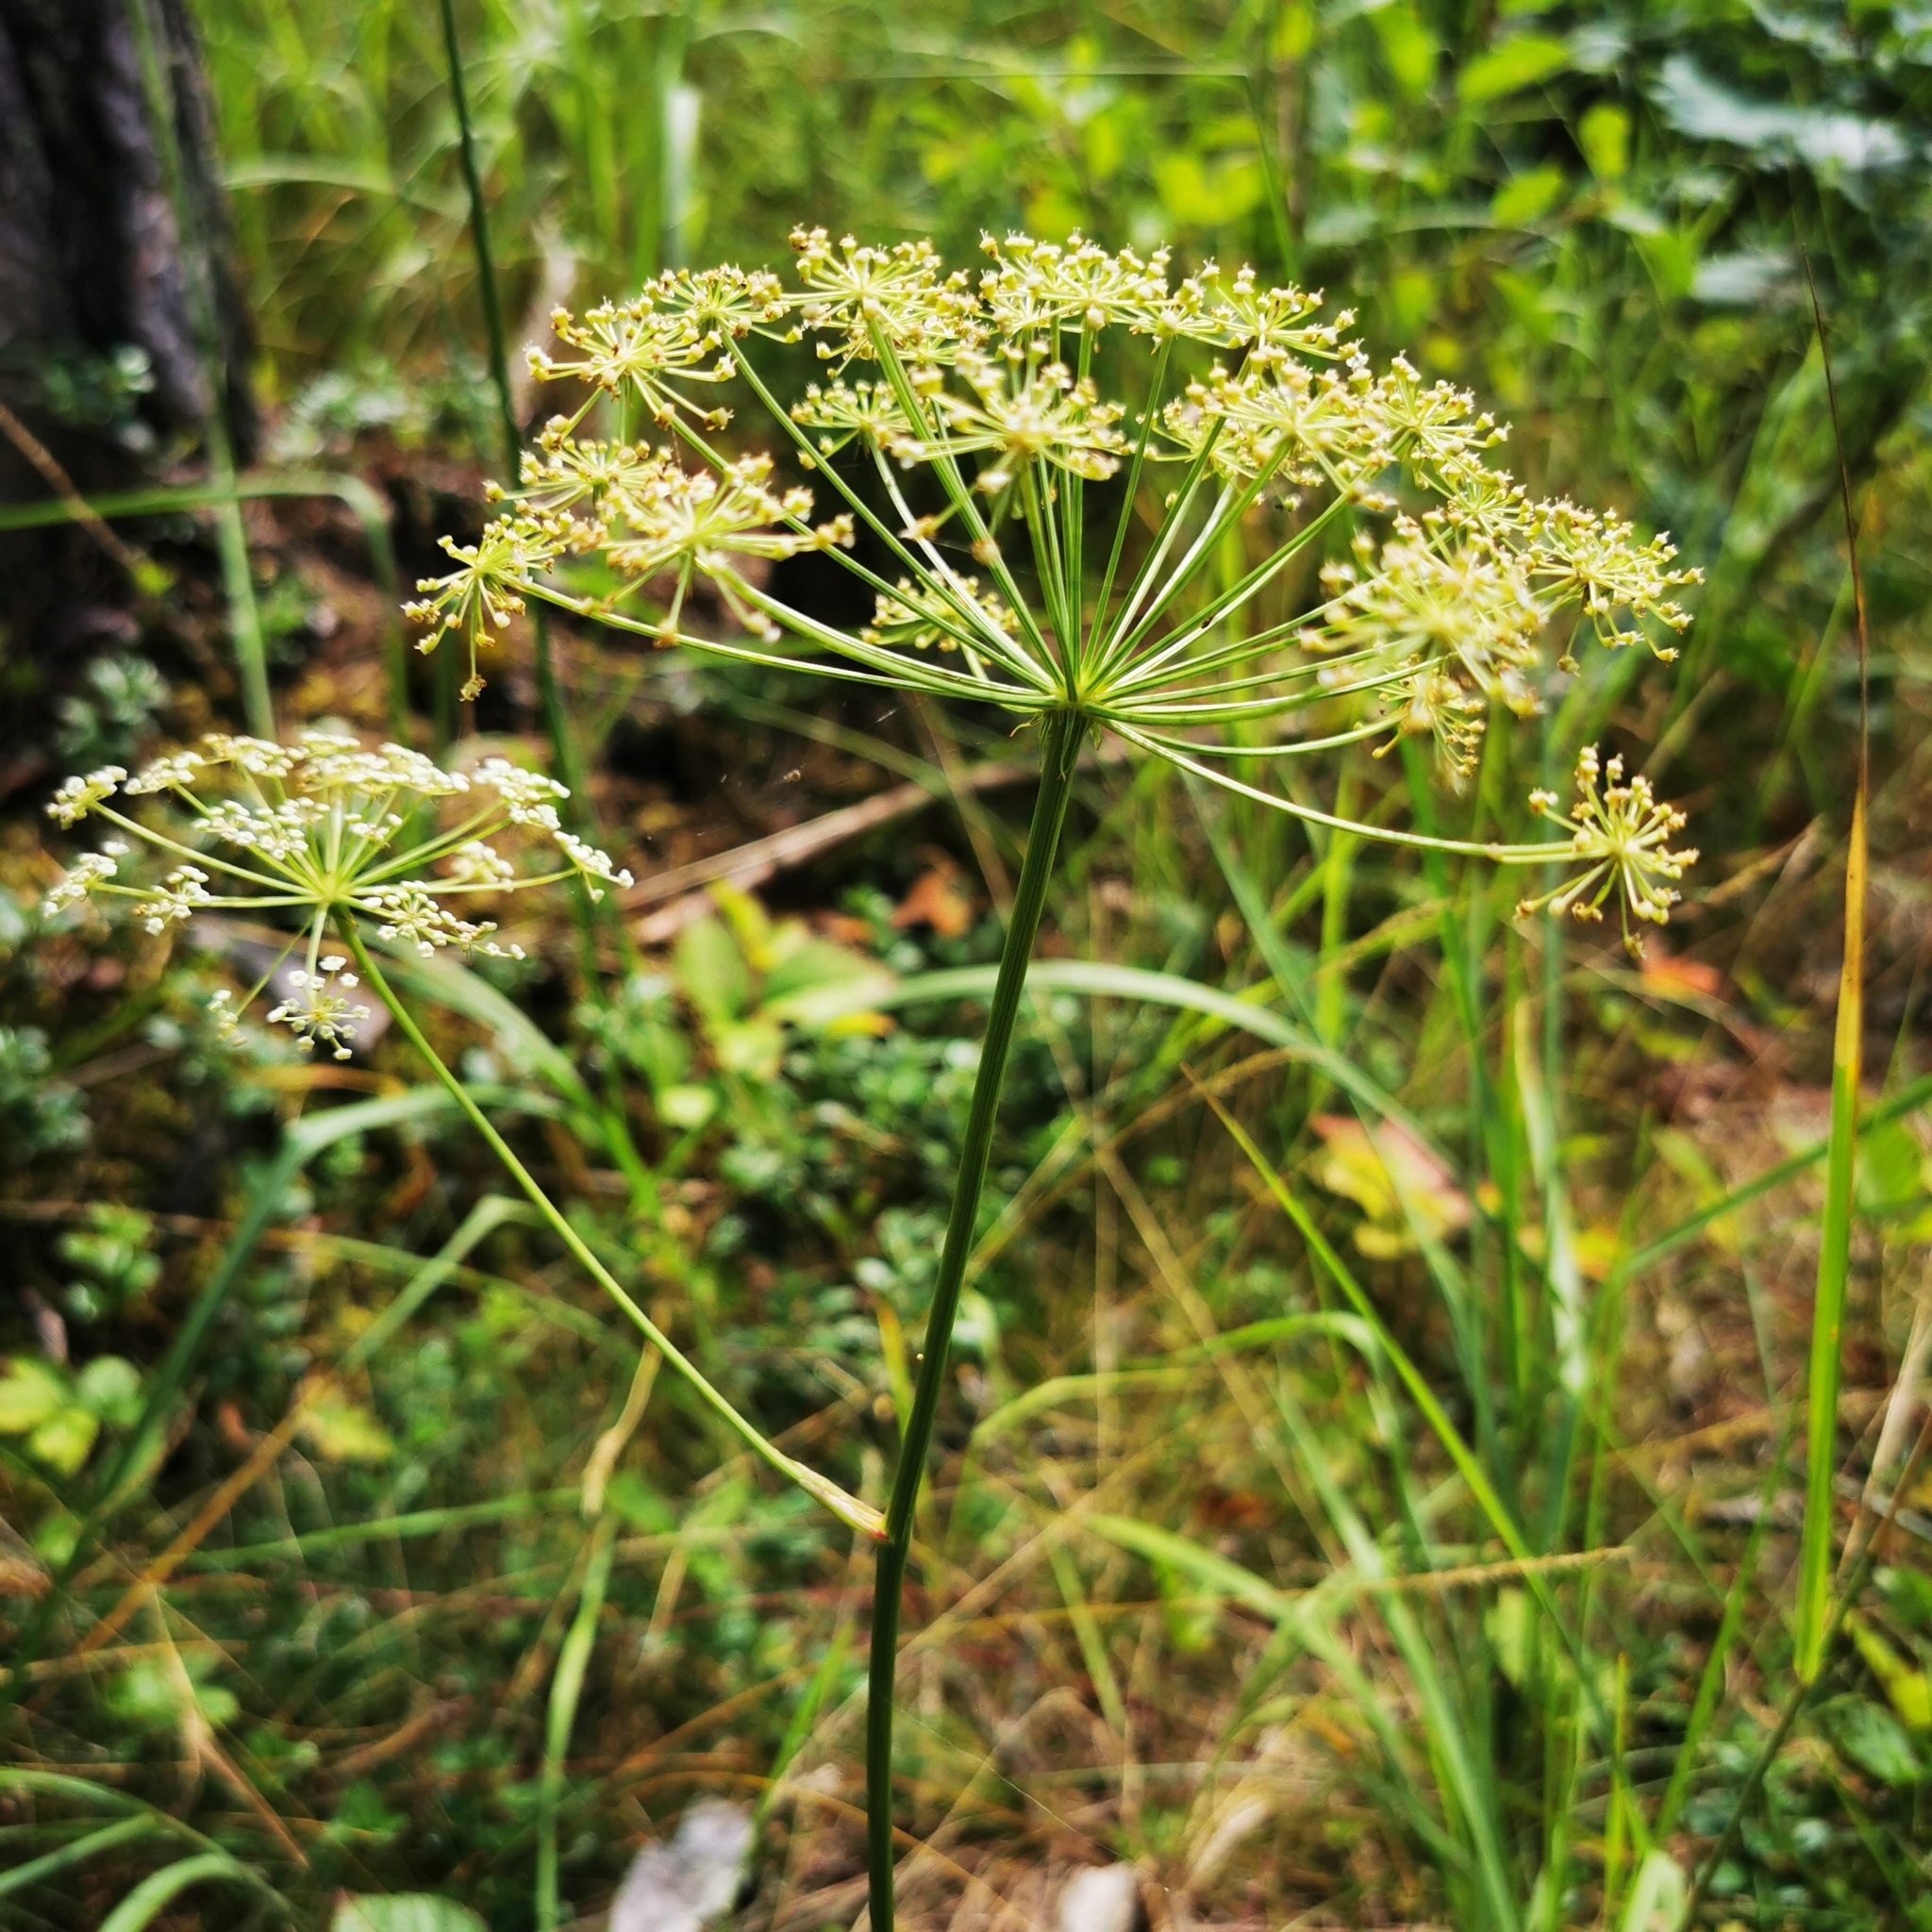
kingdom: Plantae
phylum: Tracheophyta
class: Magnoliopsida
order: Apiales
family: Apiaceae
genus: Oreoselinum
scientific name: Oreoselinum nigrum
